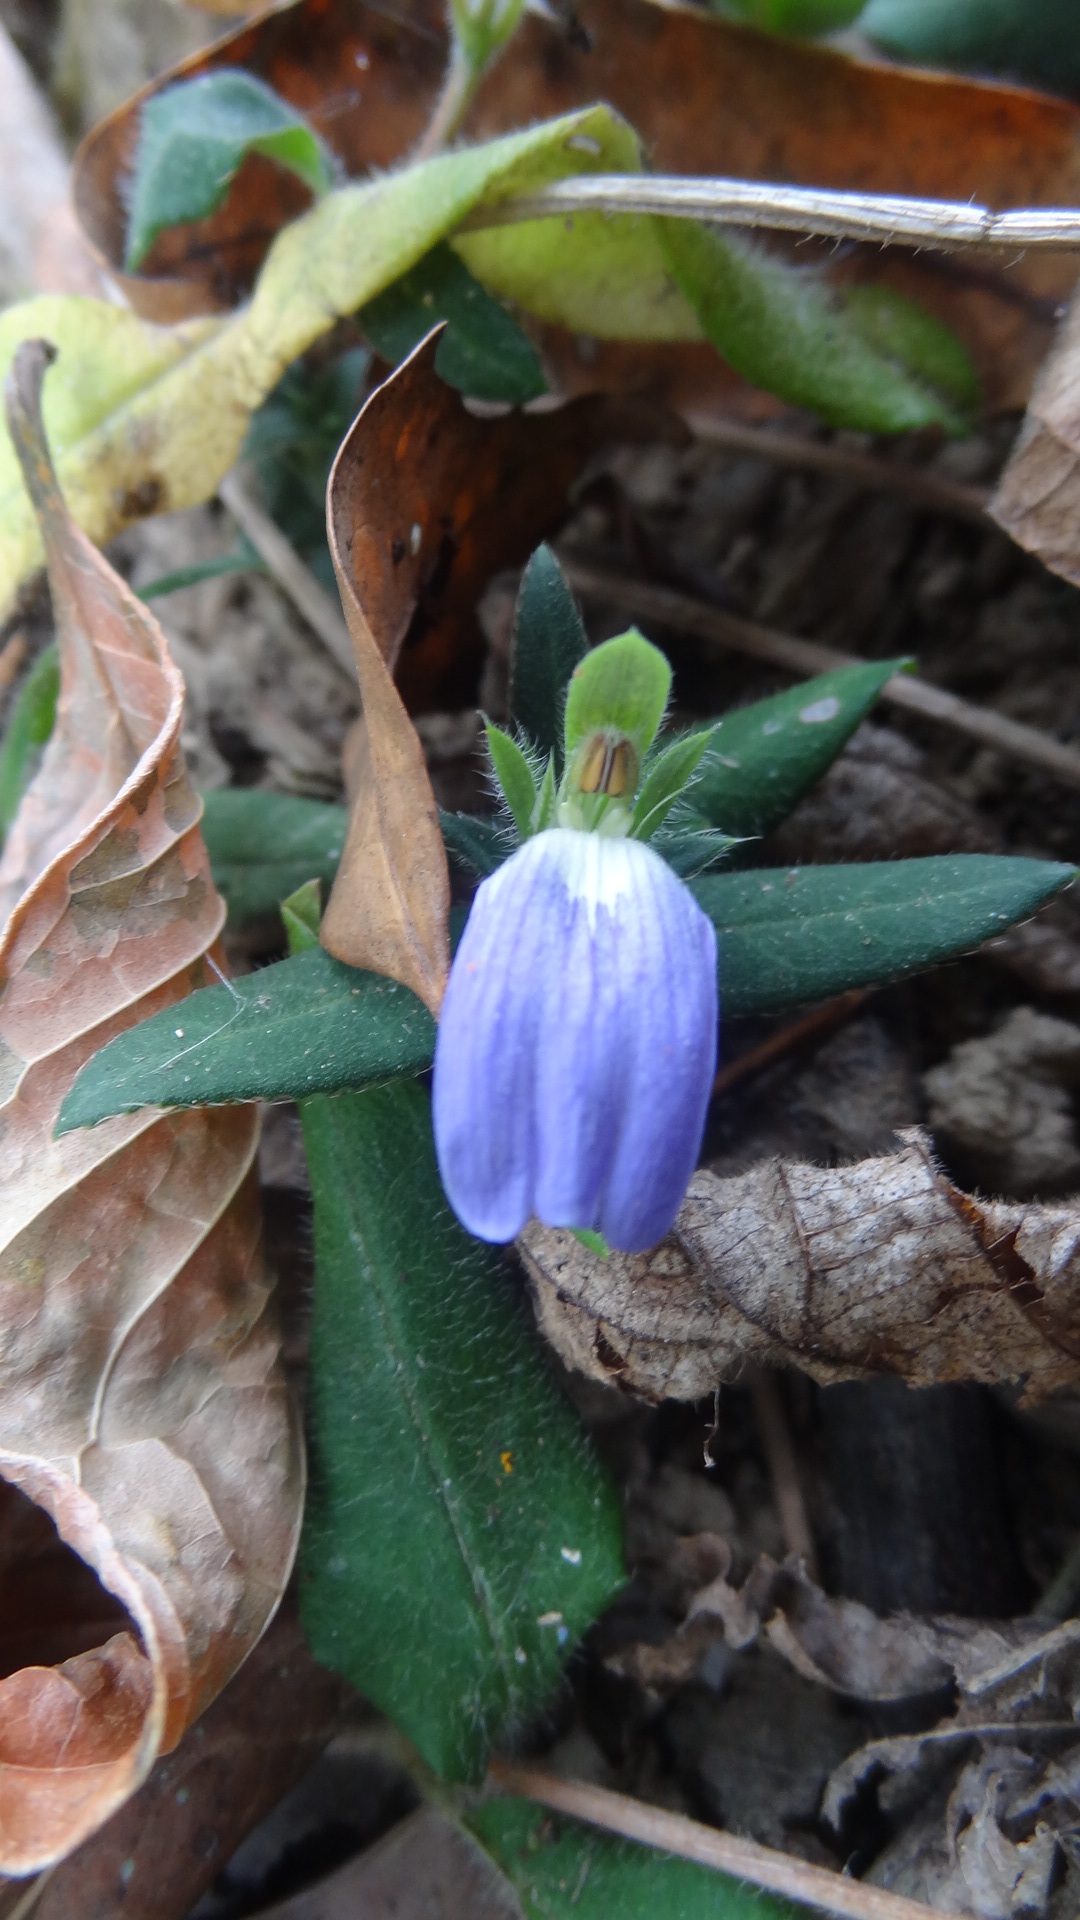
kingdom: Plantae
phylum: Tracheophyta
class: Magnoliopsida
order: Lamiales
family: Acanthaceae
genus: Cynarospermum
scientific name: Cynarospermum asperrimum
